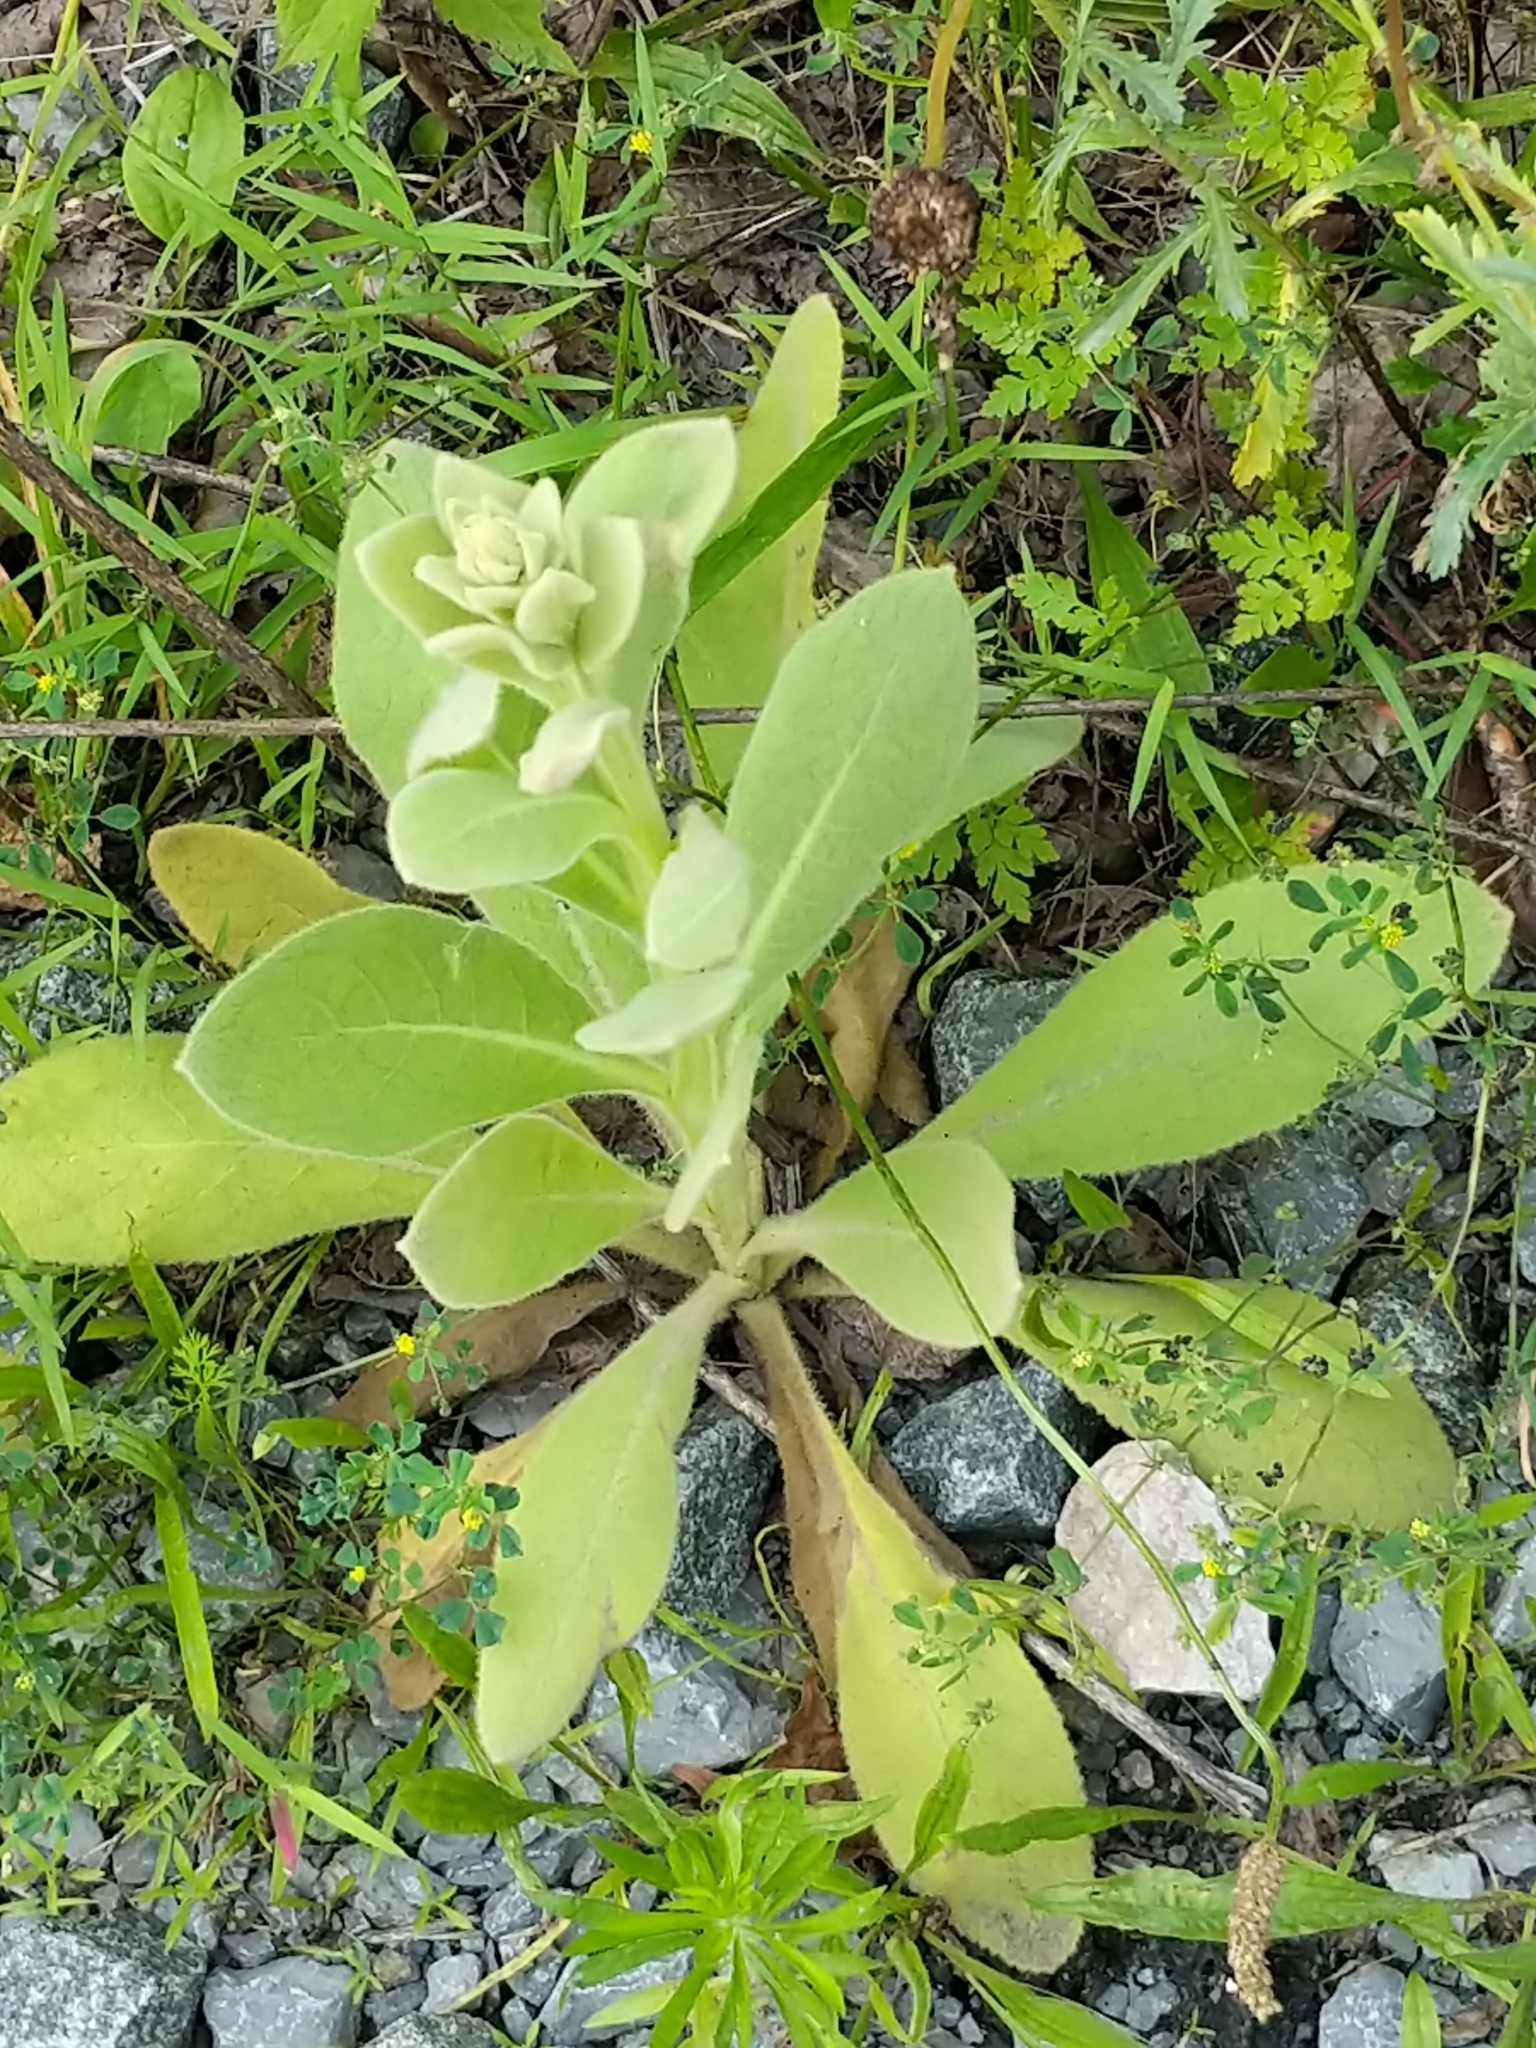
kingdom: Plantae
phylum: Tracheophyta
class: Magnoliopsida
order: Lamiales
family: Scrophulariaceae
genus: Verbascum
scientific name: Verbascum thapsus
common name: Common mullein
